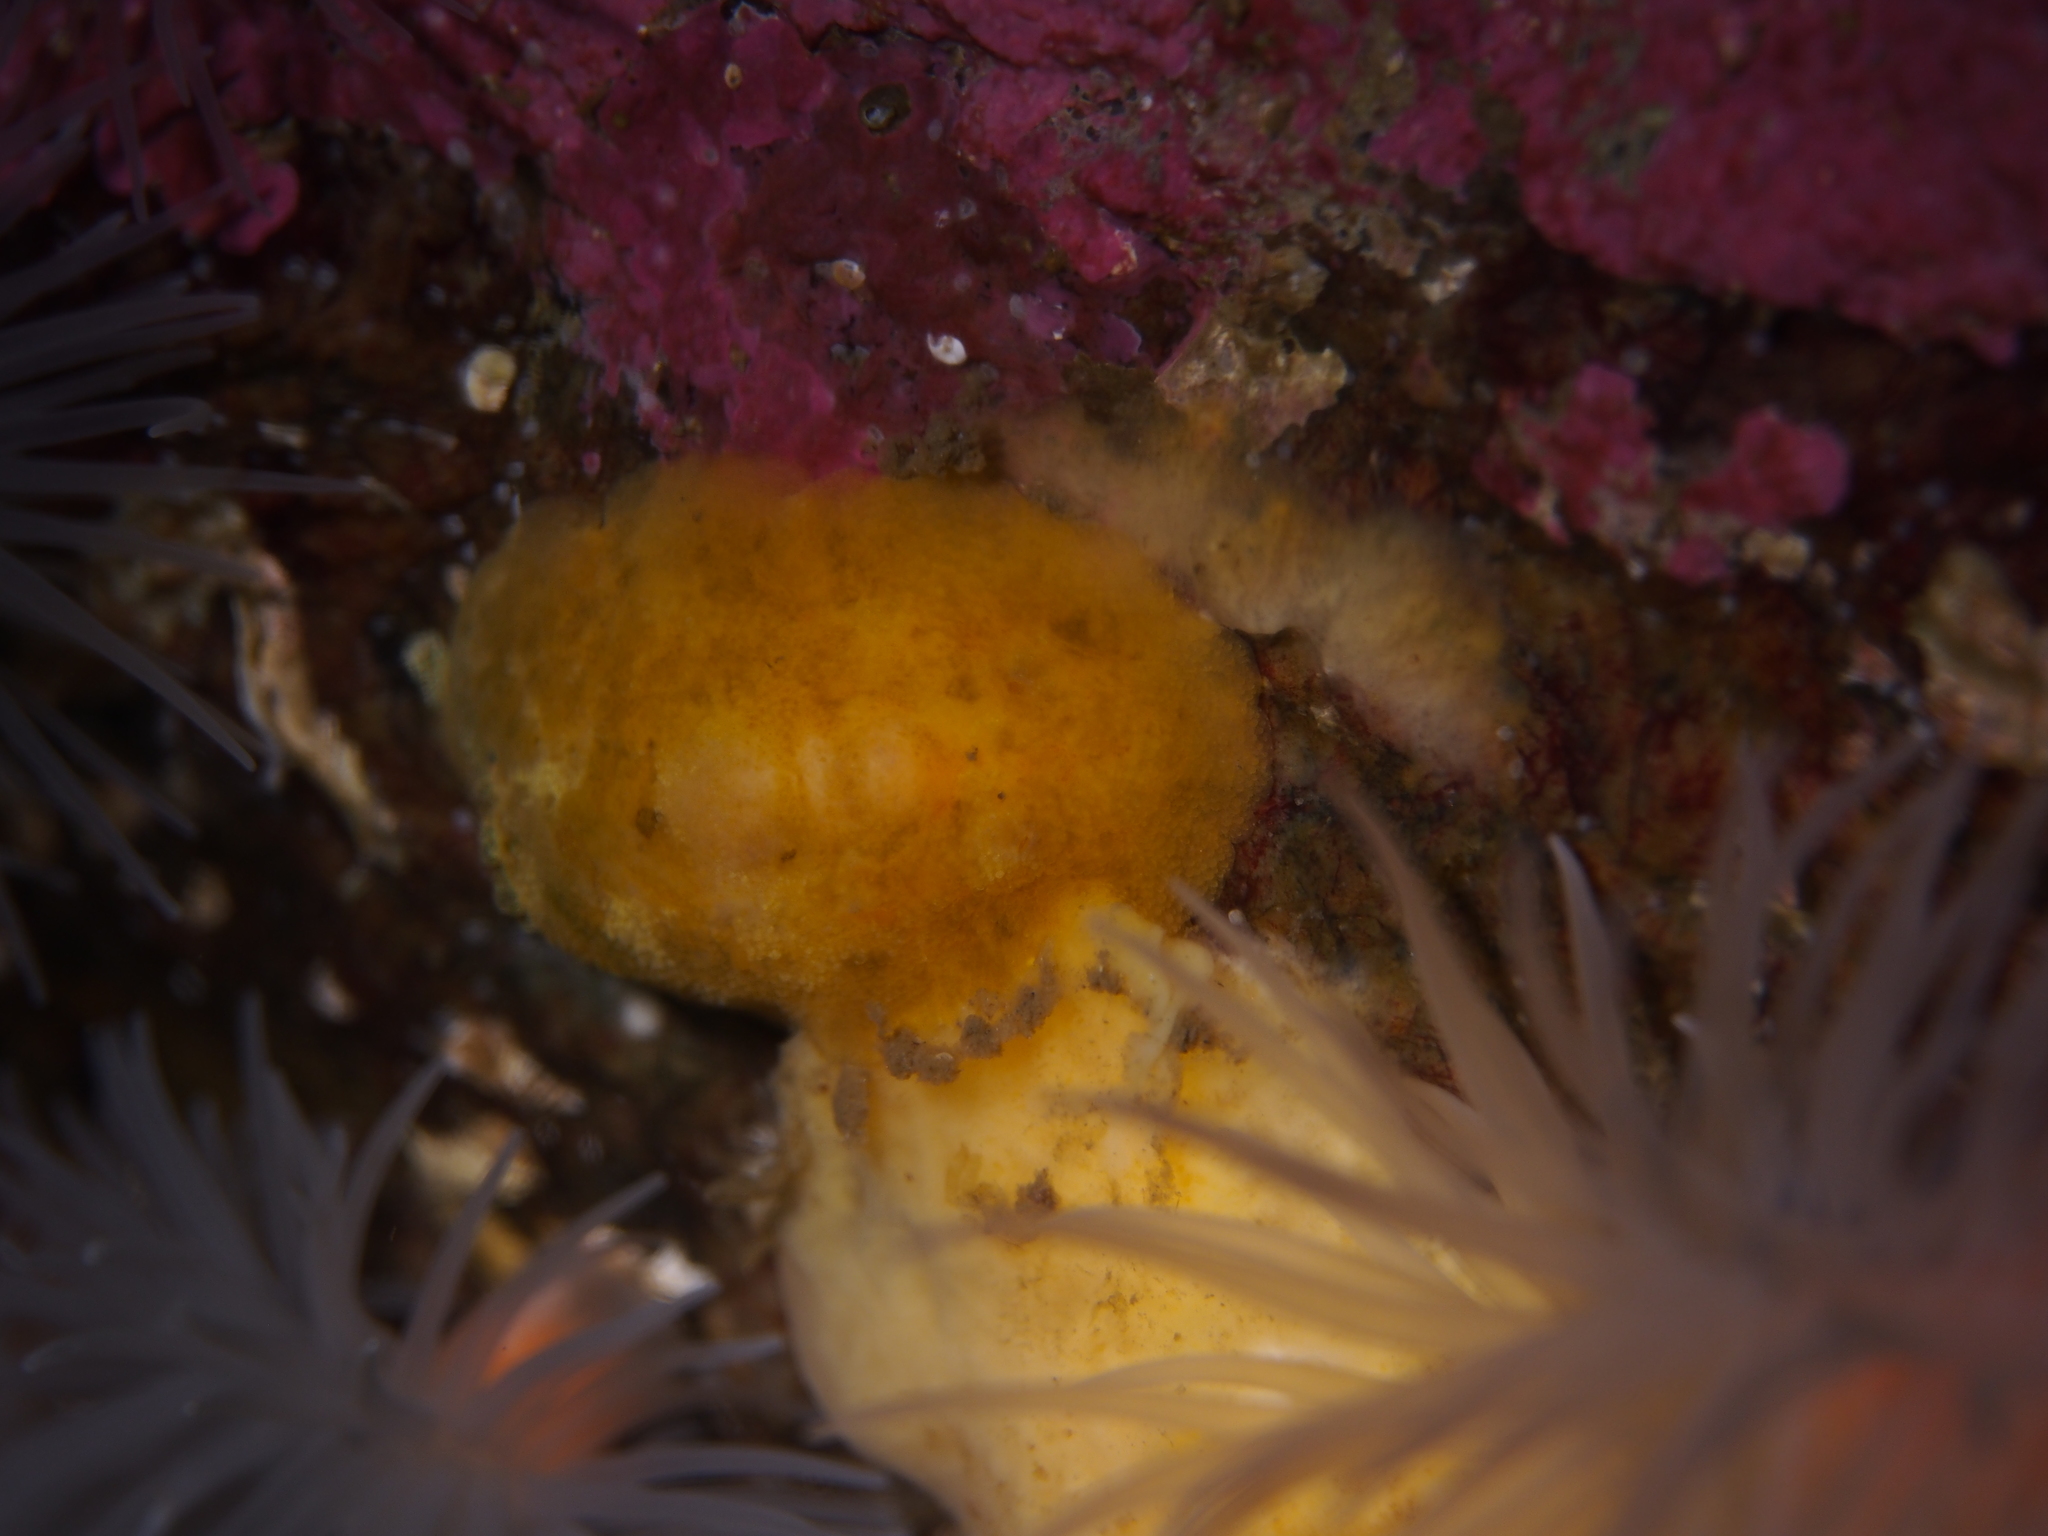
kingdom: Animalia
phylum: Mollusca
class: Gastropoda
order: Nudibranchia
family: Dorididae
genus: Doris
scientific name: Doris pseudoargus
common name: Sea lemon
